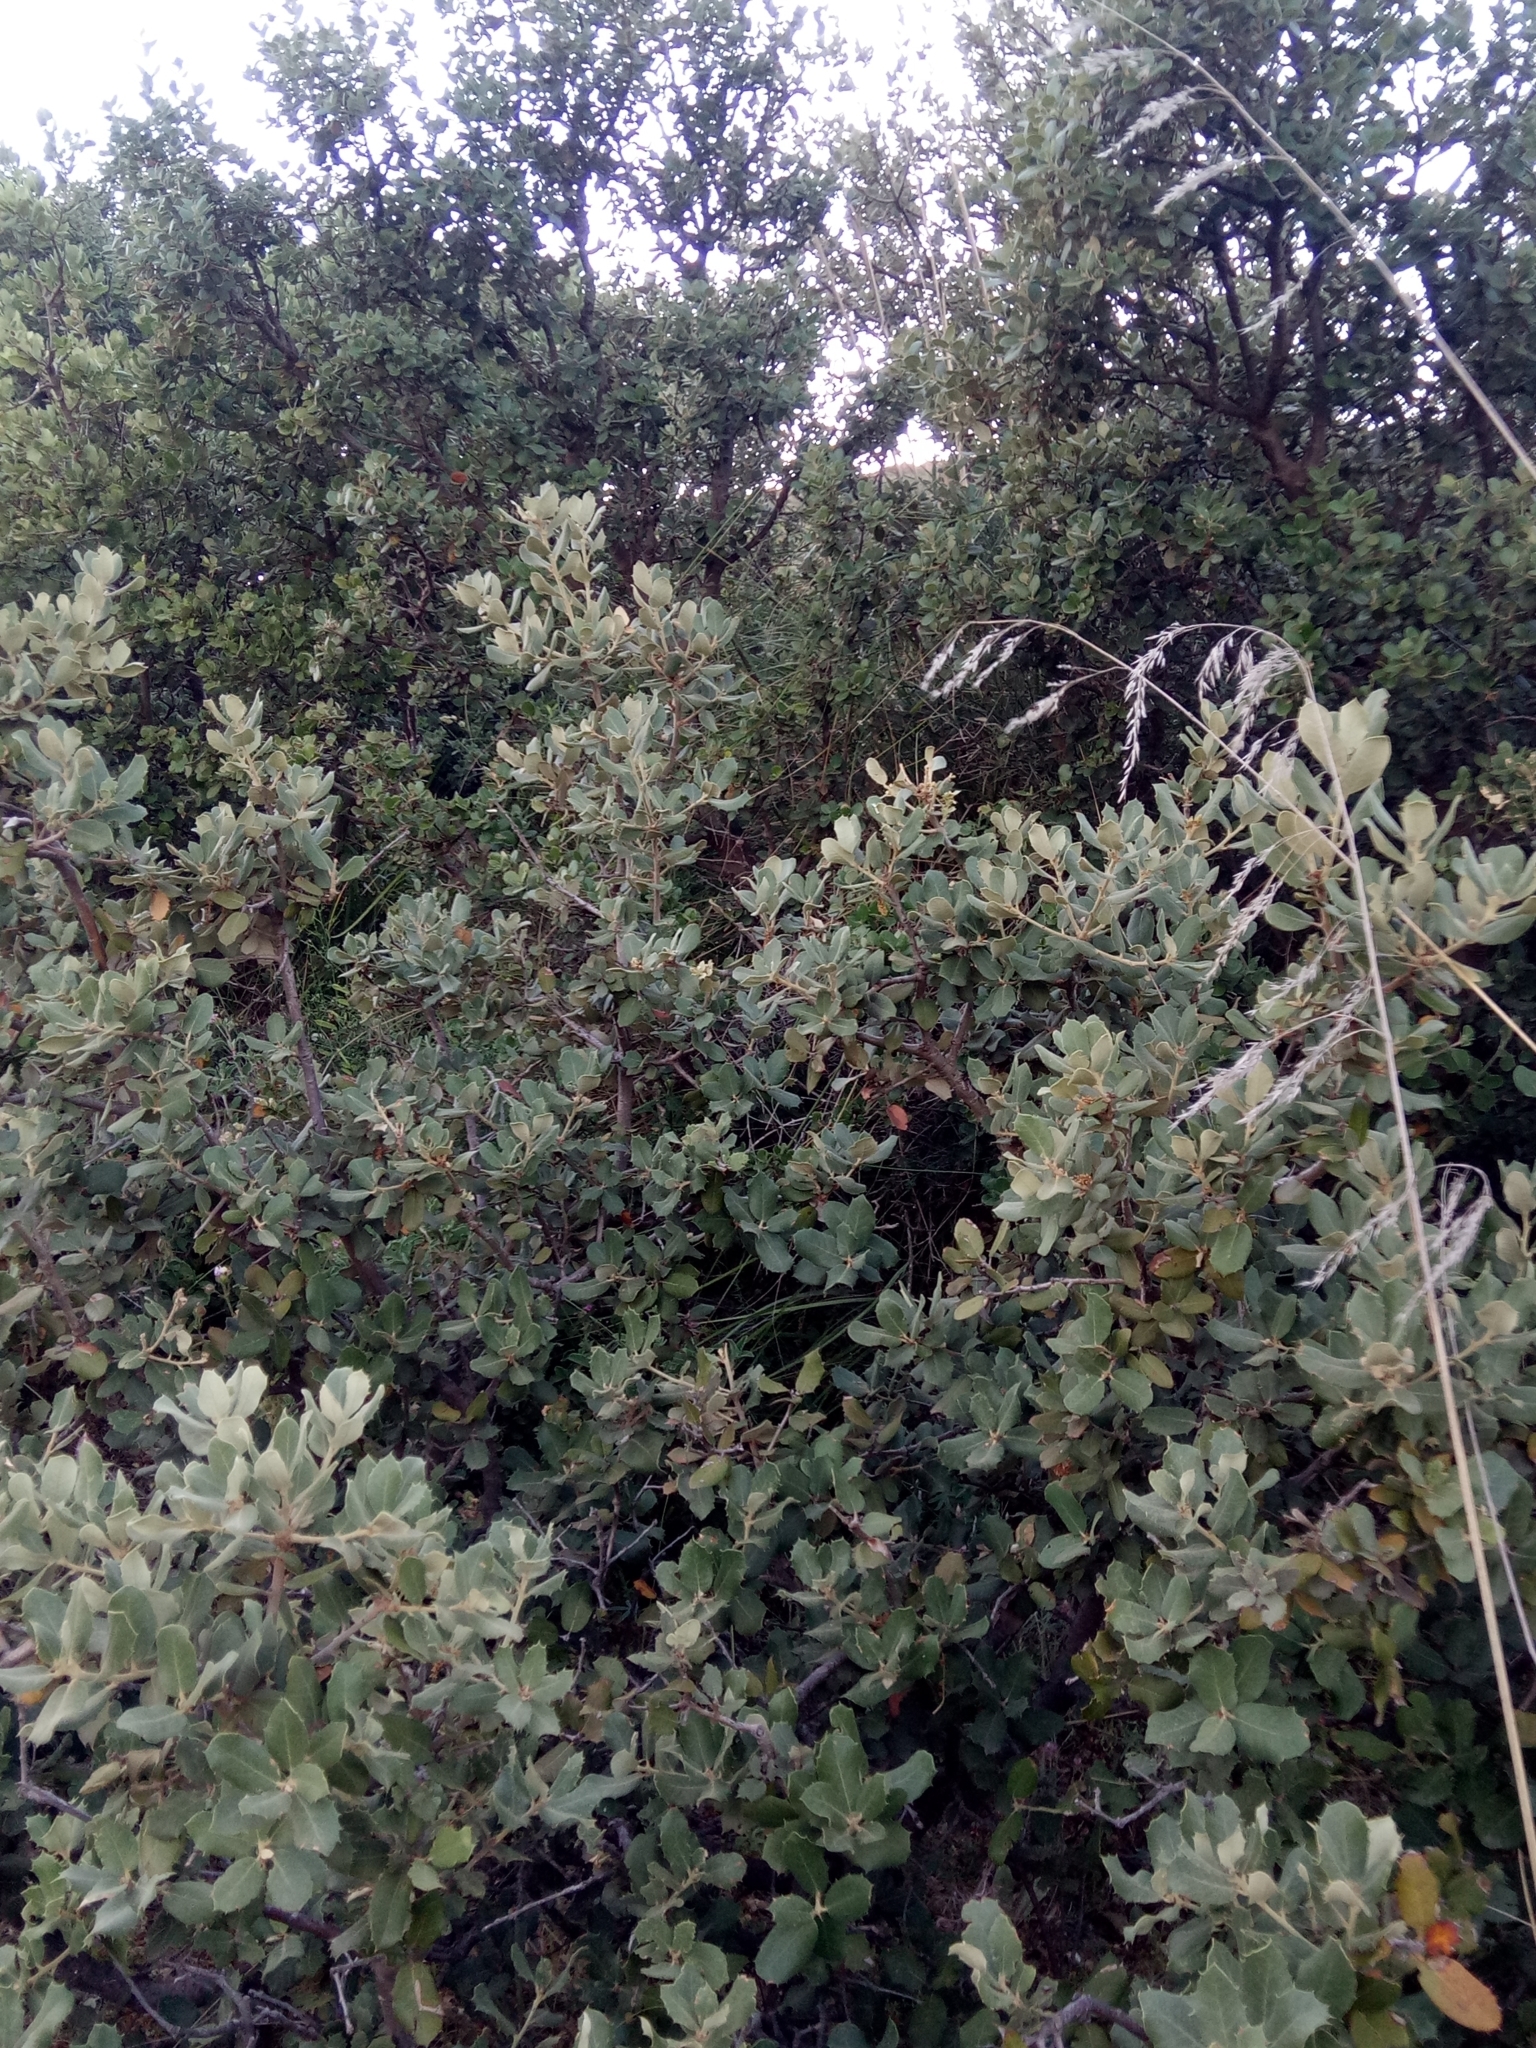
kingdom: Plantae
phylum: Tracheophyta
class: Magnoliopsida
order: Fagales
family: Fagaceae
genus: Quercus
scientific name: Quercus rotundifolia
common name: Holm oak
